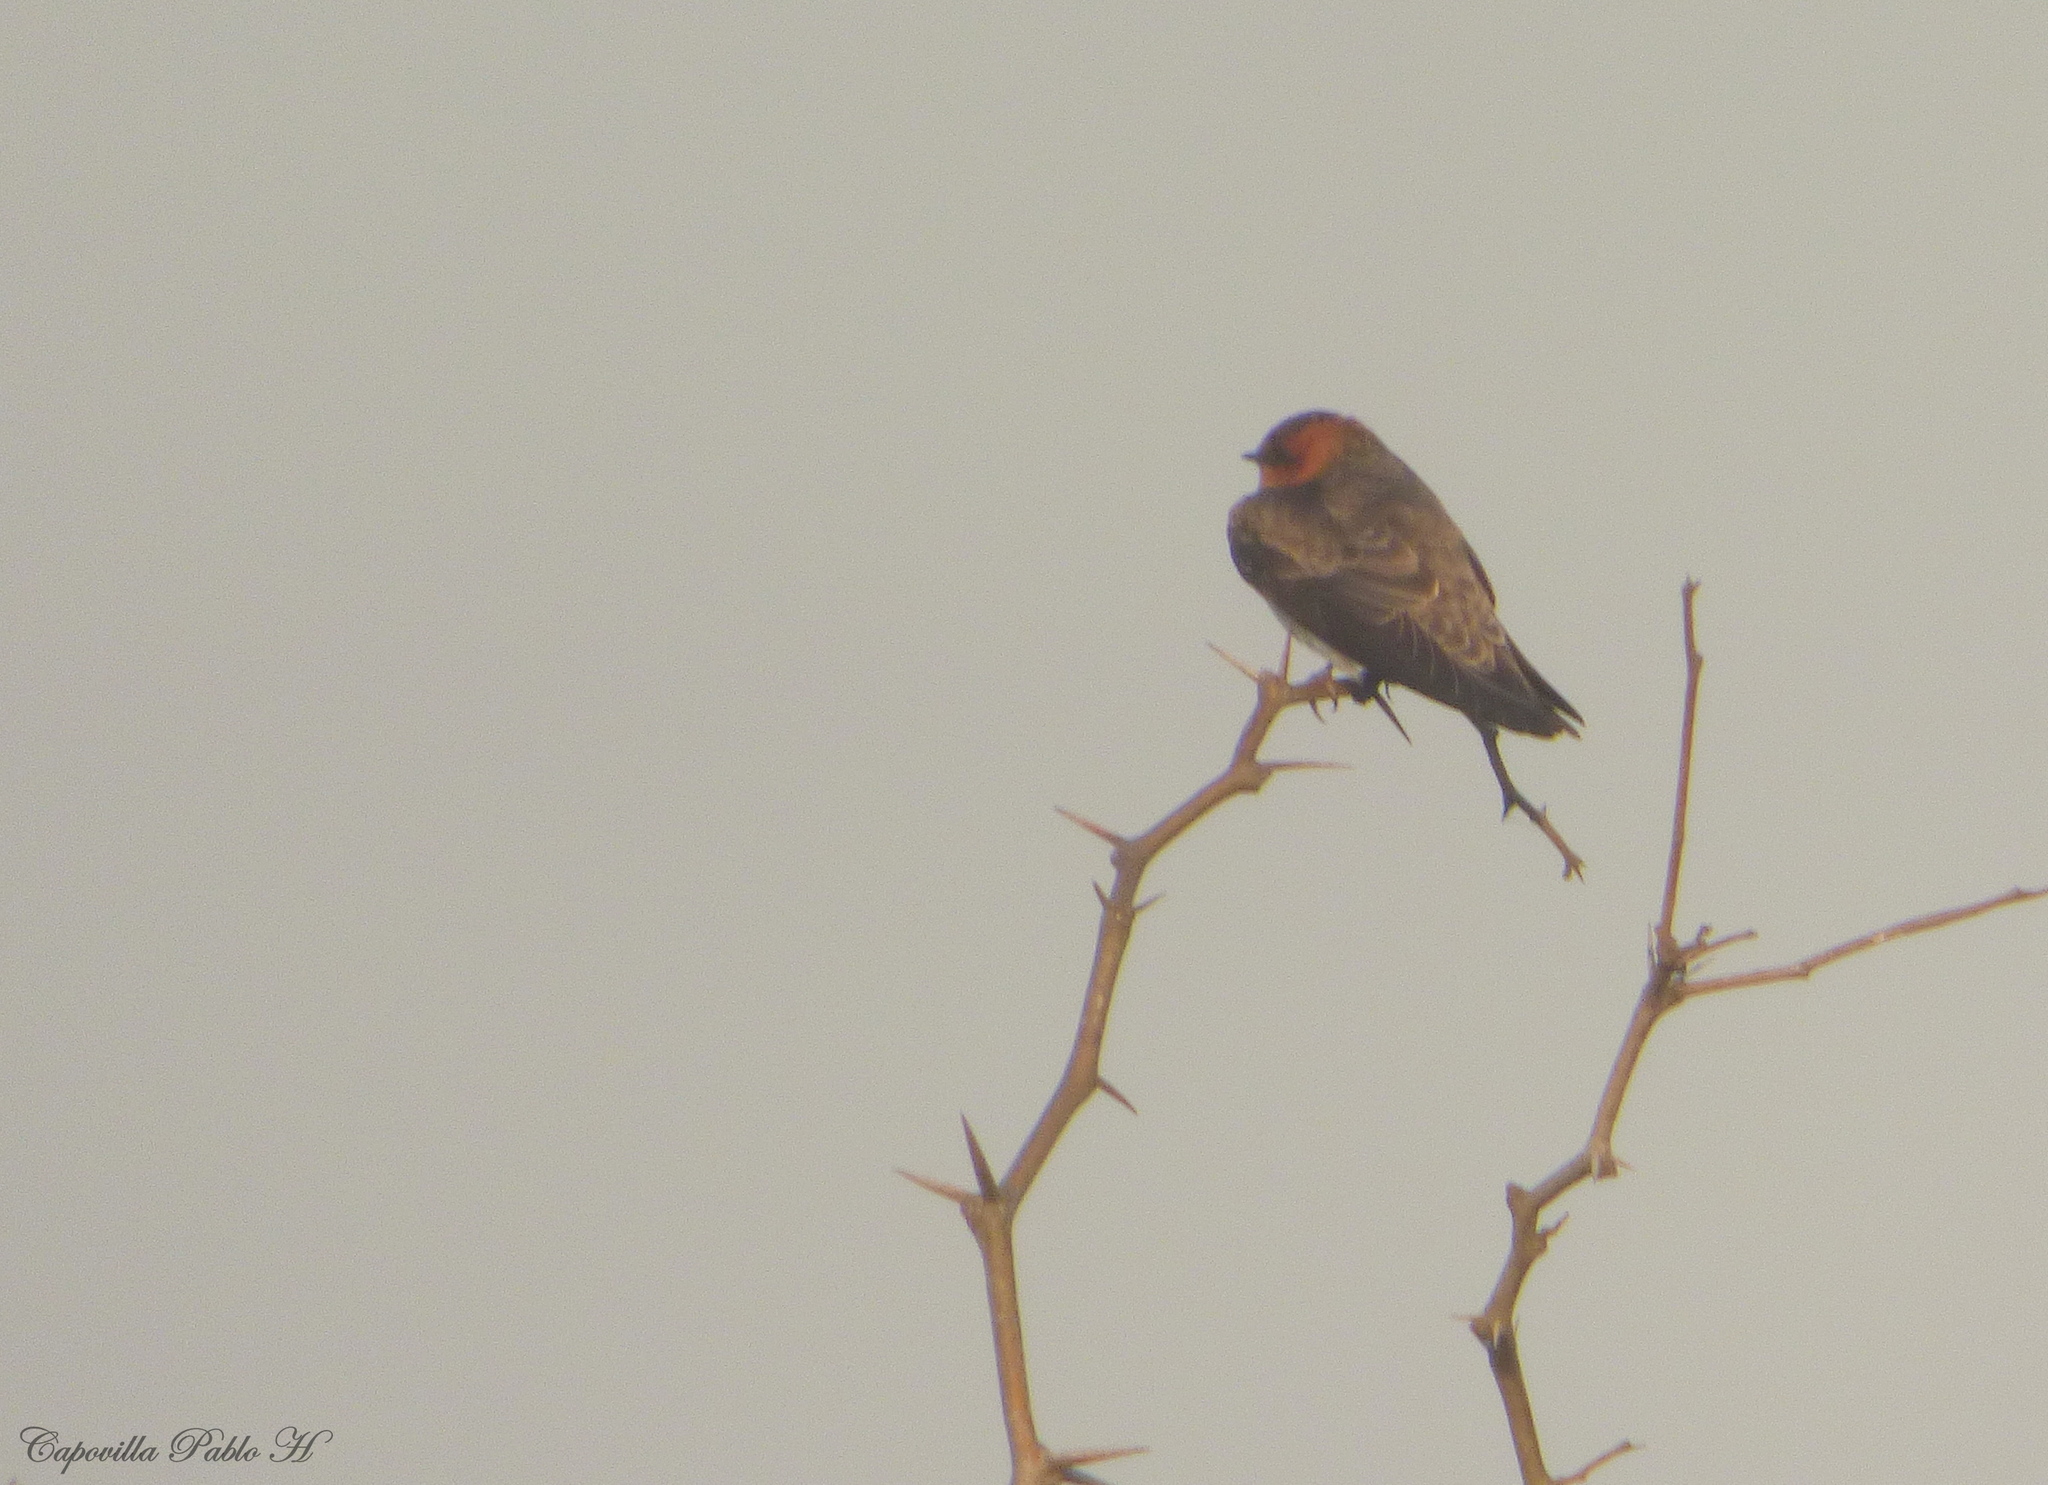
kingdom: Animalia
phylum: Chordata
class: Aves
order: Passeriformes
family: Hirundinidae
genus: Alopochelidon
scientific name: Alopochelidon fucata
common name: Tawny-headed swallow
